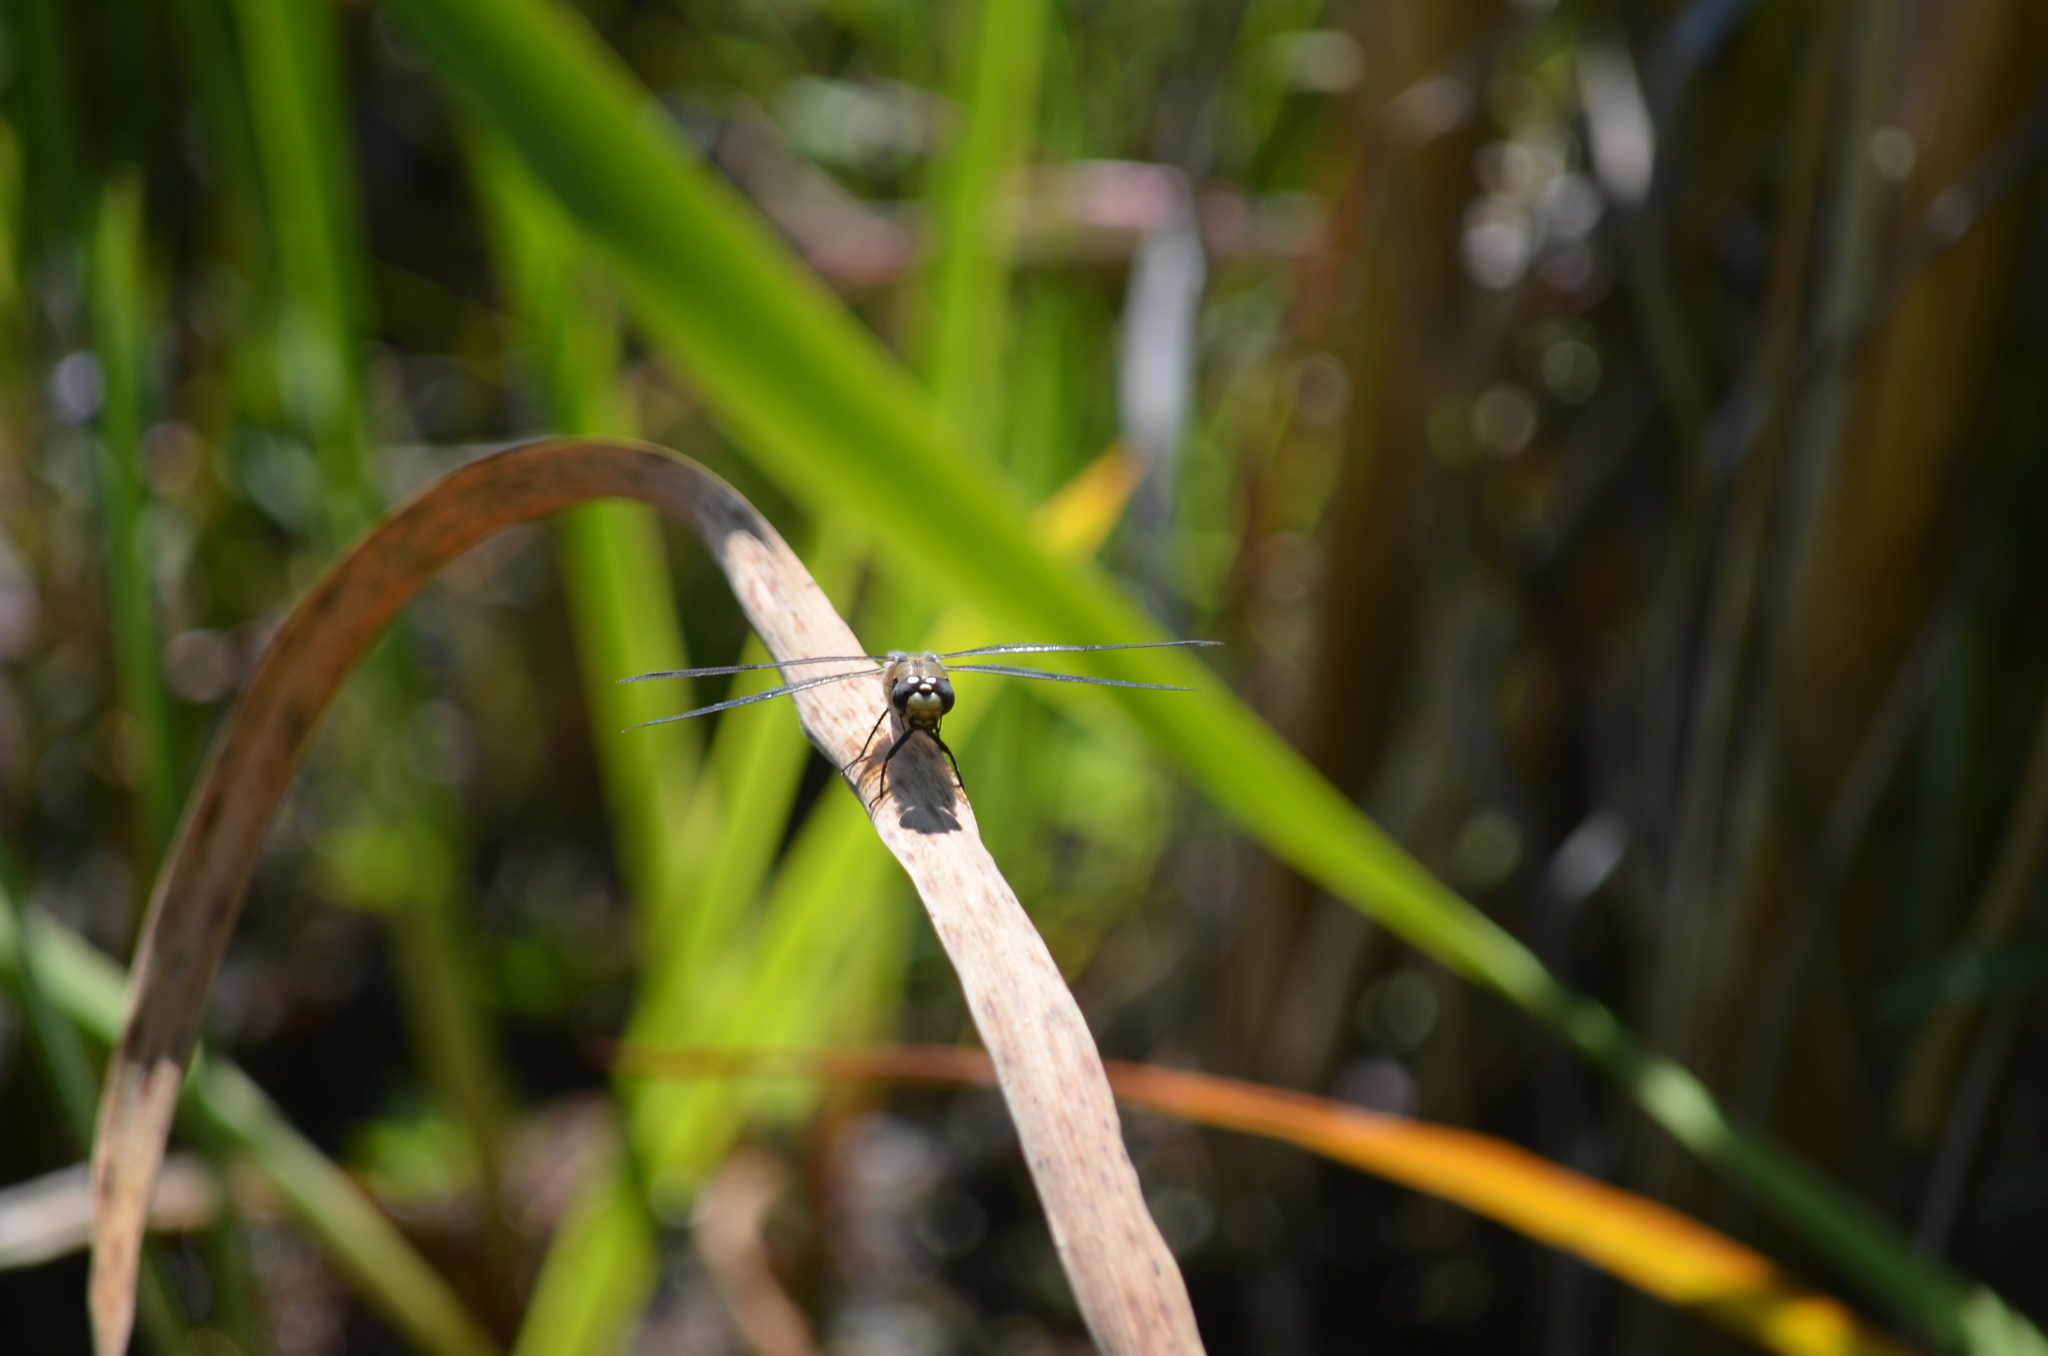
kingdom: Animalia
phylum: Arthropoda
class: Insecta
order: Odonata
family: Libellulidae
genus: Libellula
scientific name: Libellula quadrimaculata
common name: Four-spotted chaser
